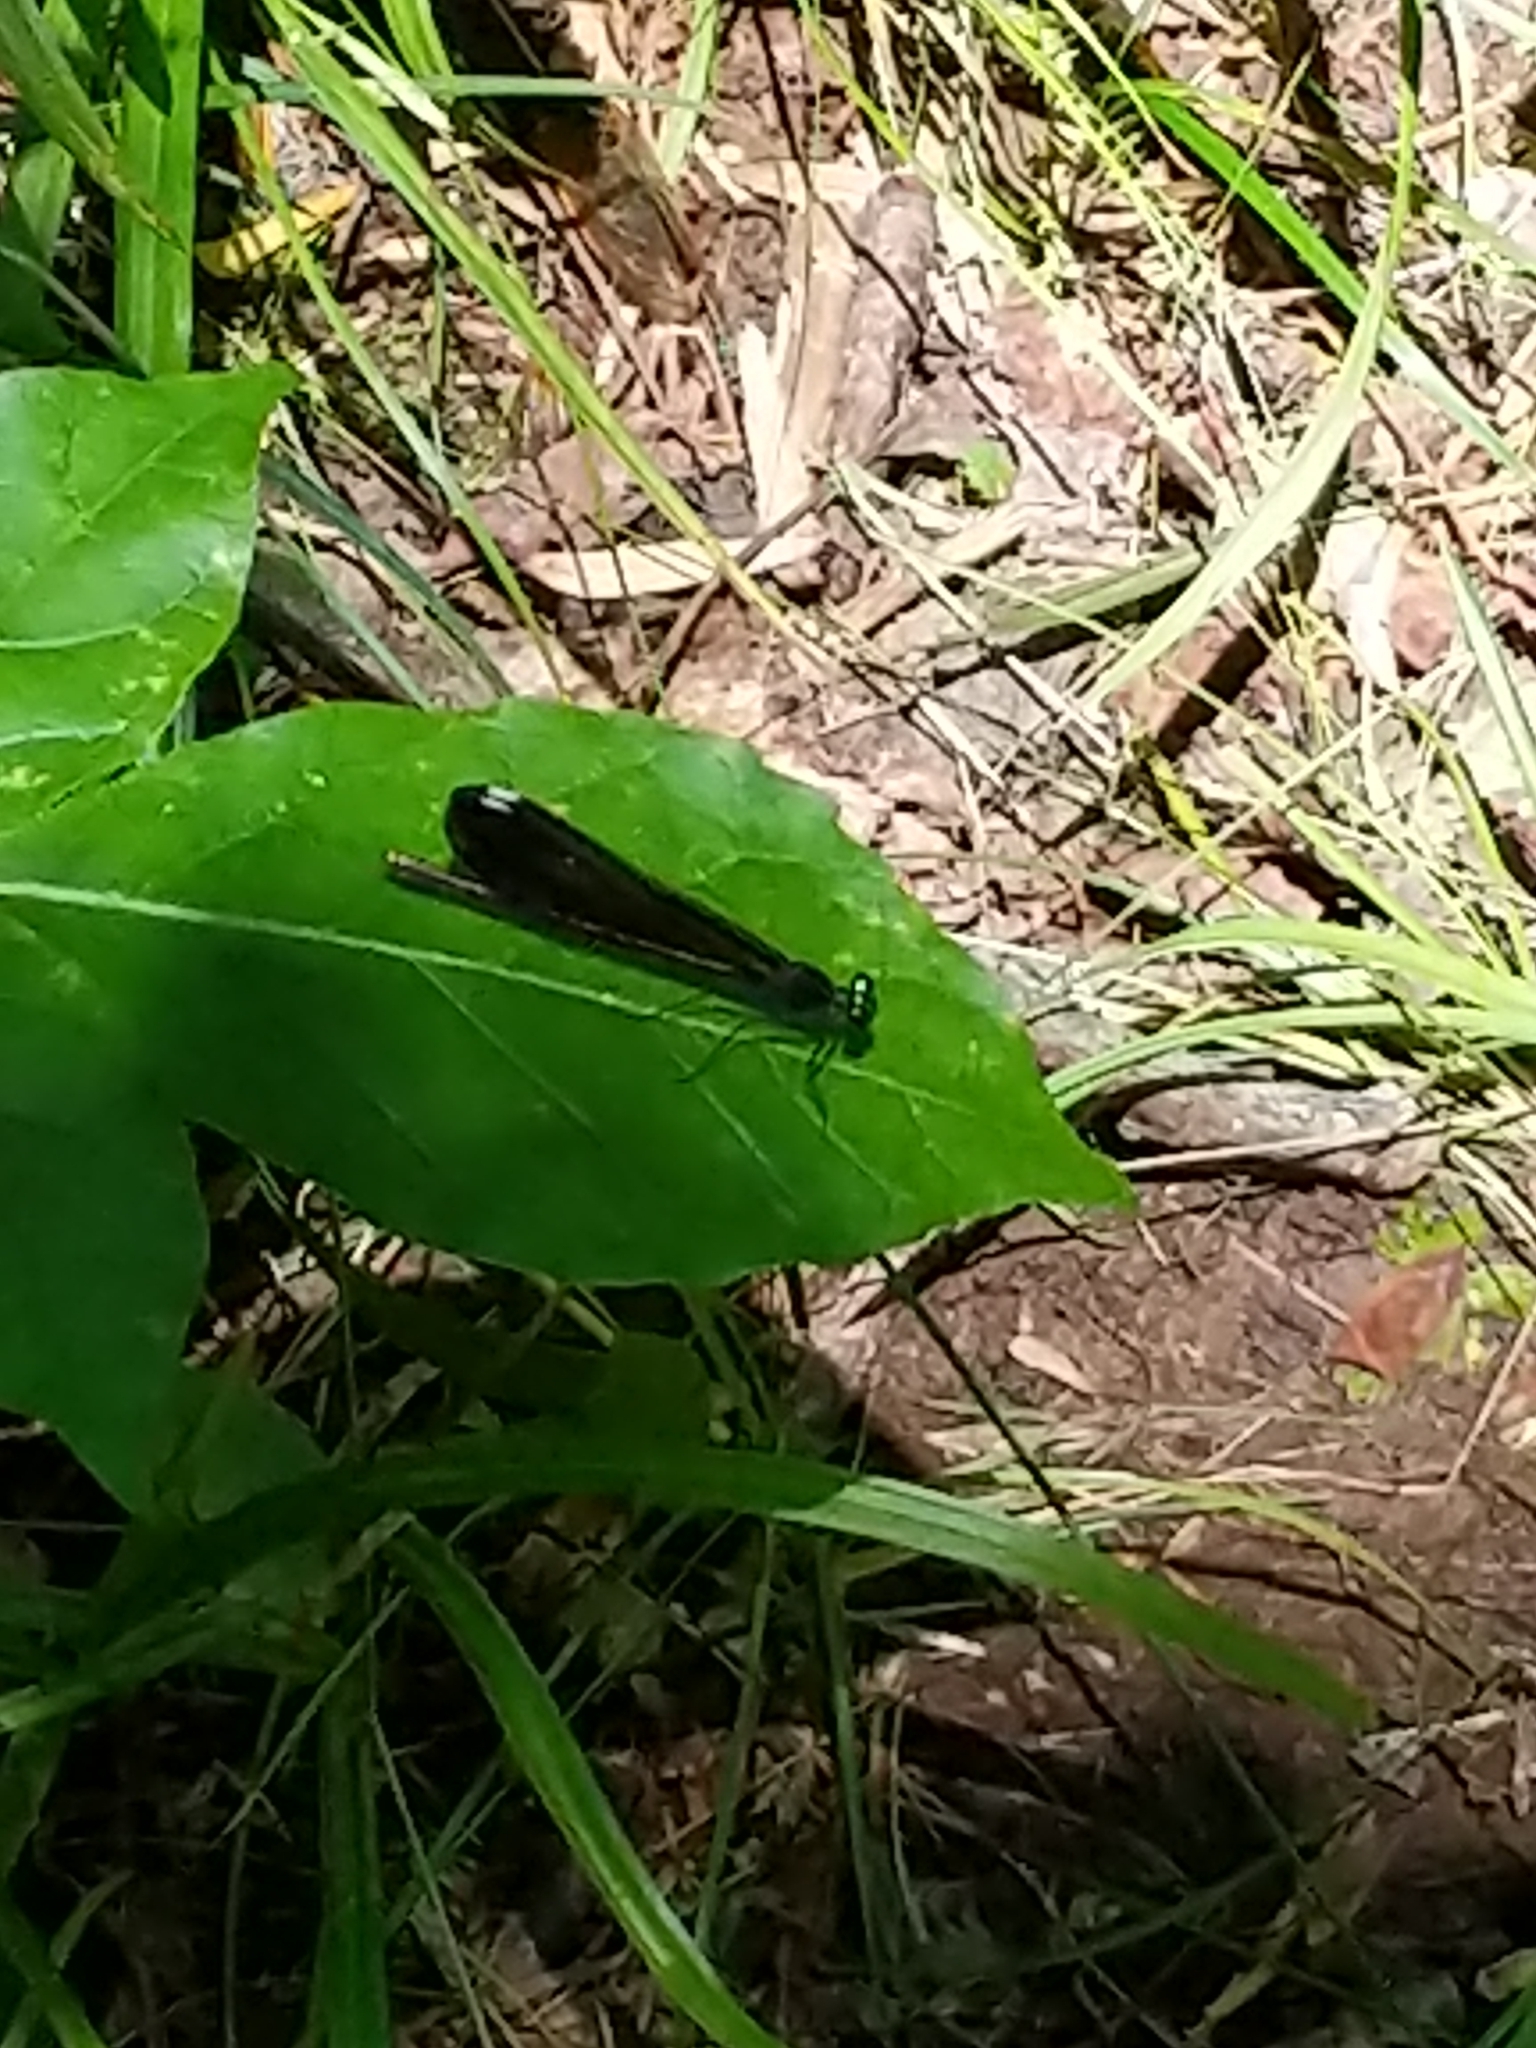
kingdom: Animalia
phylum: Arthropoda
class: Insecta
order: Odonata
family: Calopterygidae
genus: Calopteryx
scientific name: Calopteryx maculata
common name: Ebony jewelwing
